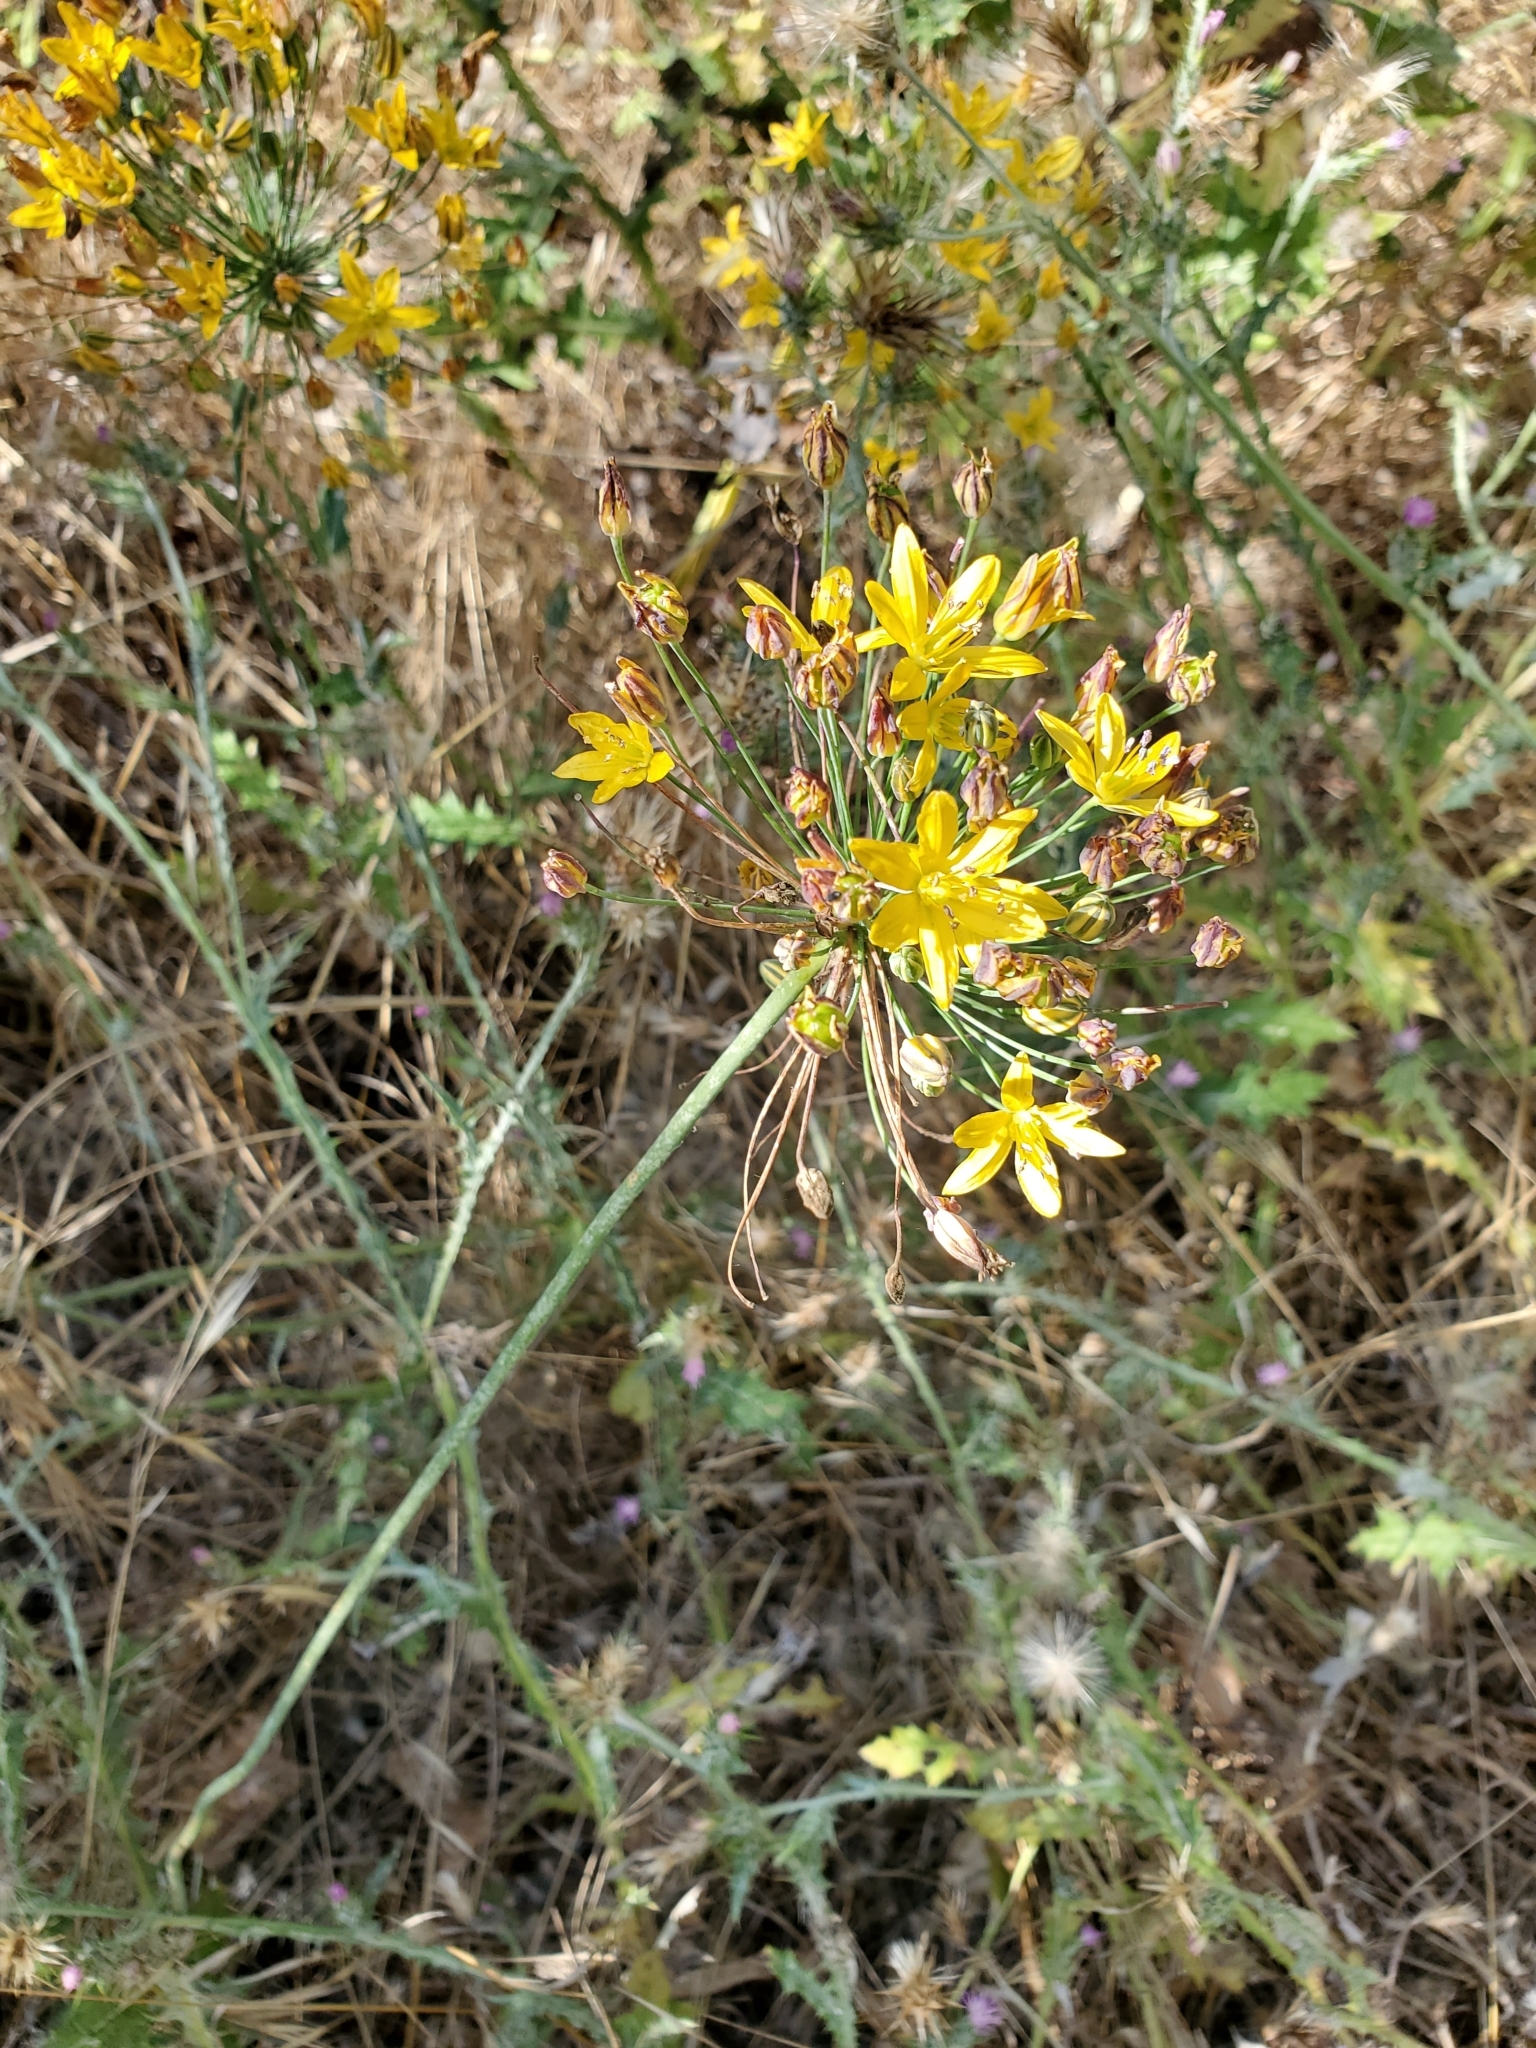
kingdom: Plantae
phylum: Tracheophyta
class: Liliopsida
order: Asparagales
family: Asparagaceae
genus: Bloomeria
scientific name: Bloomeria crocea
